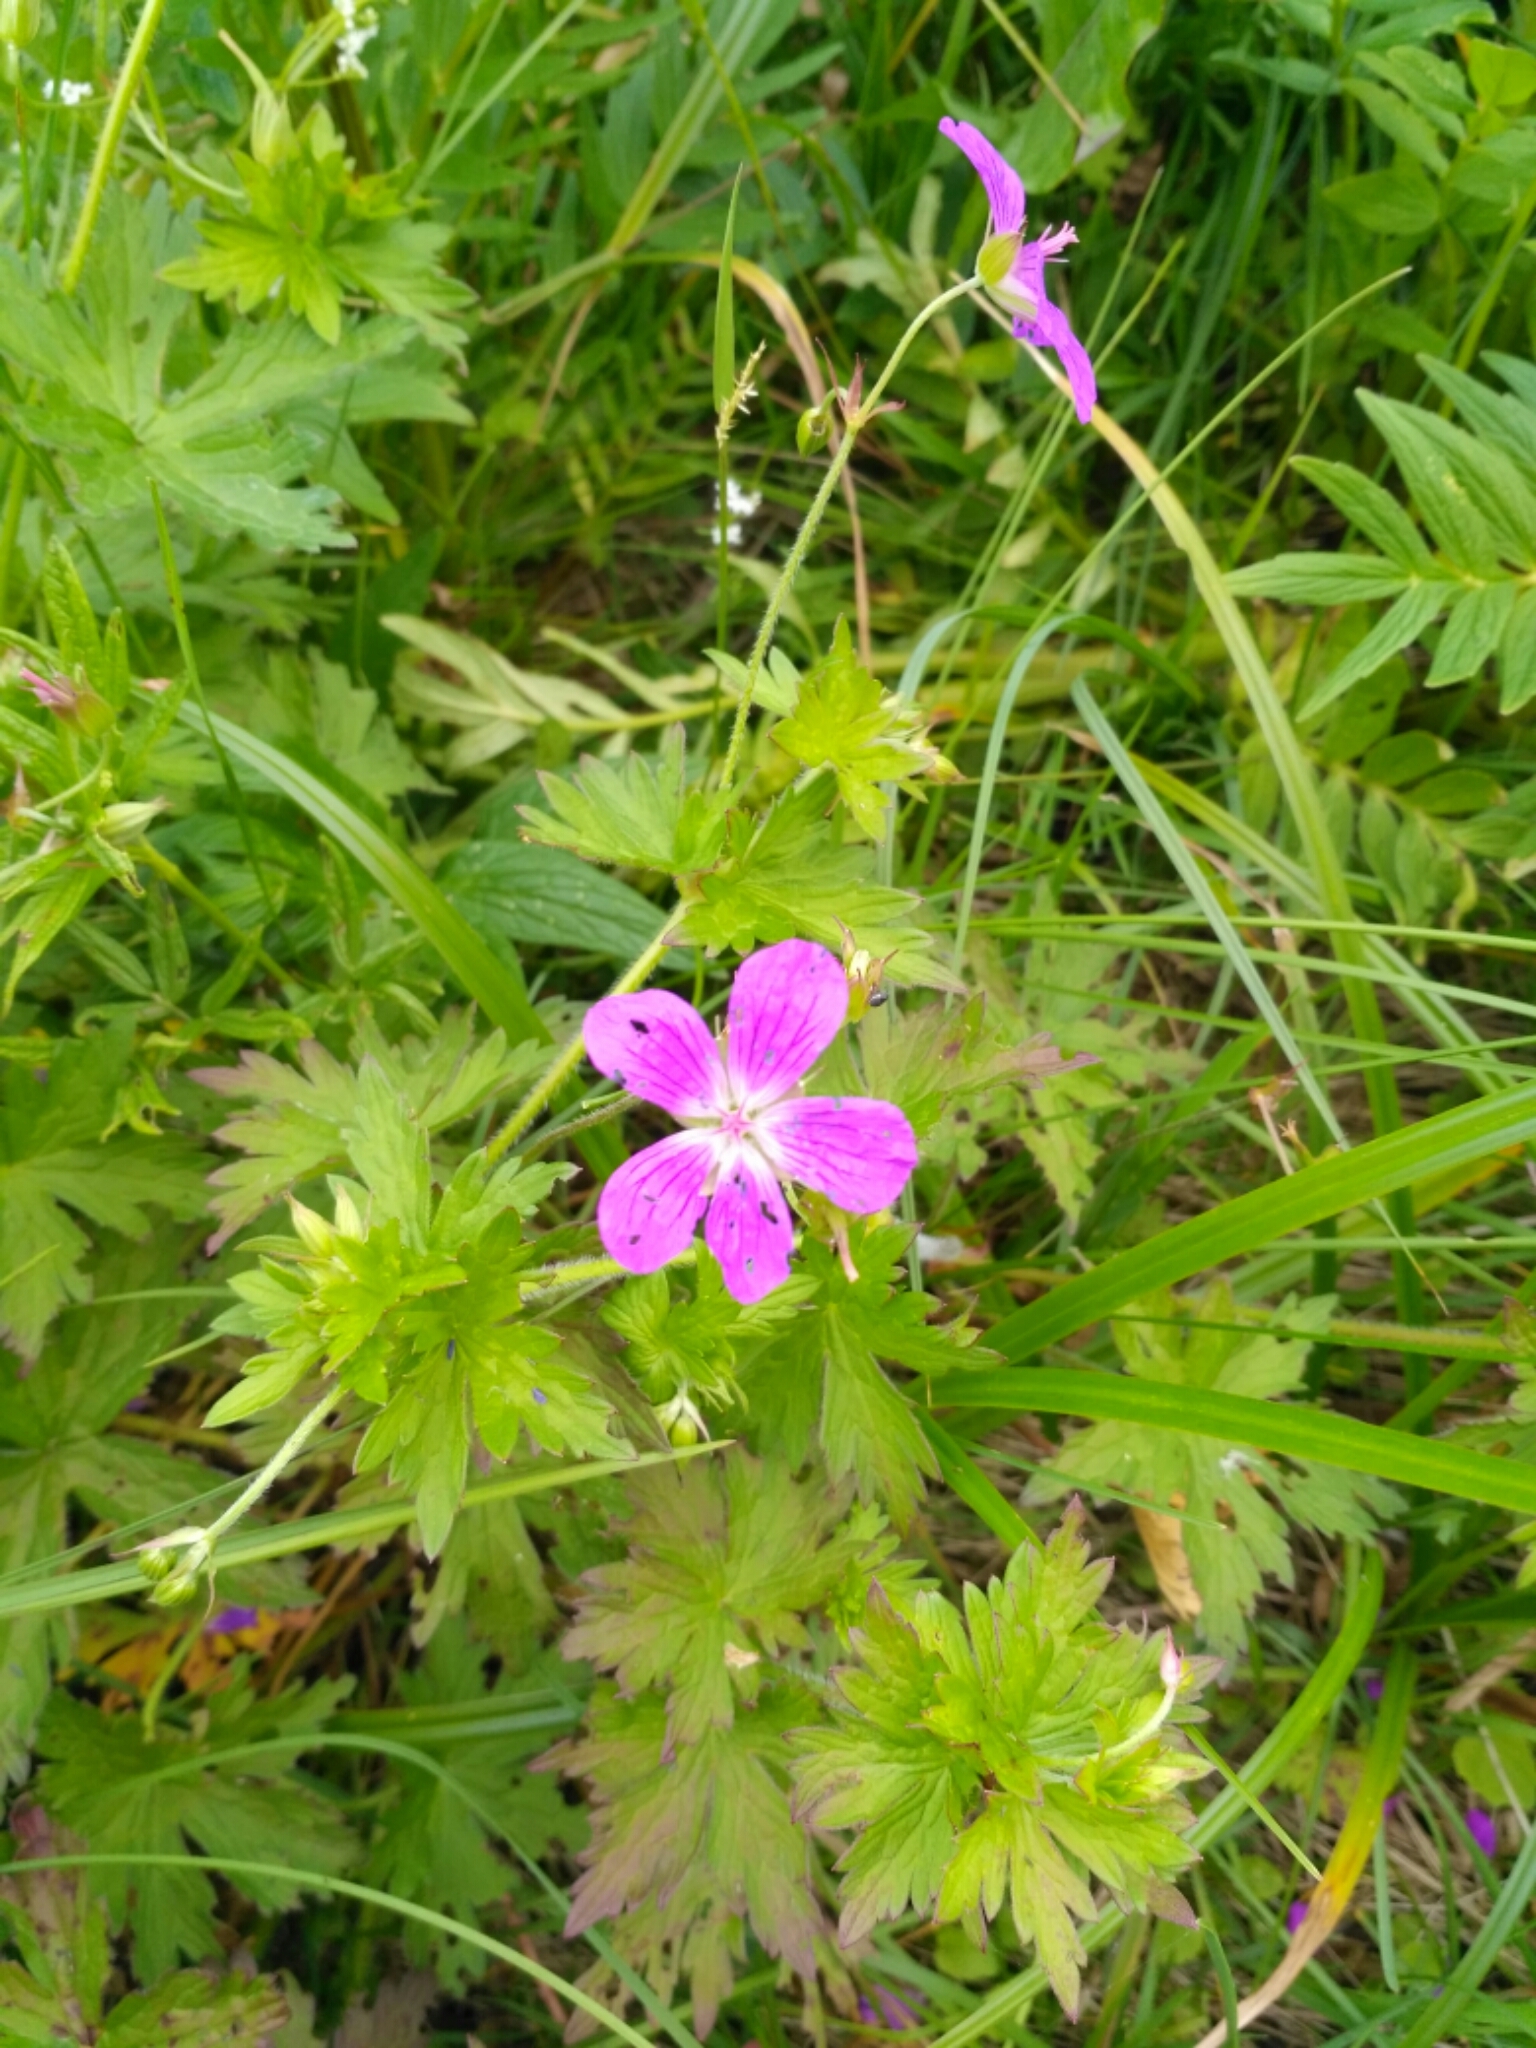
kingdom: Plantae
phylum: Tracheophyta
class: Magnoliopsida
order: Geraniales
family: Geraniaceae
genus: Geranium
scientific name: Geranium palustre
